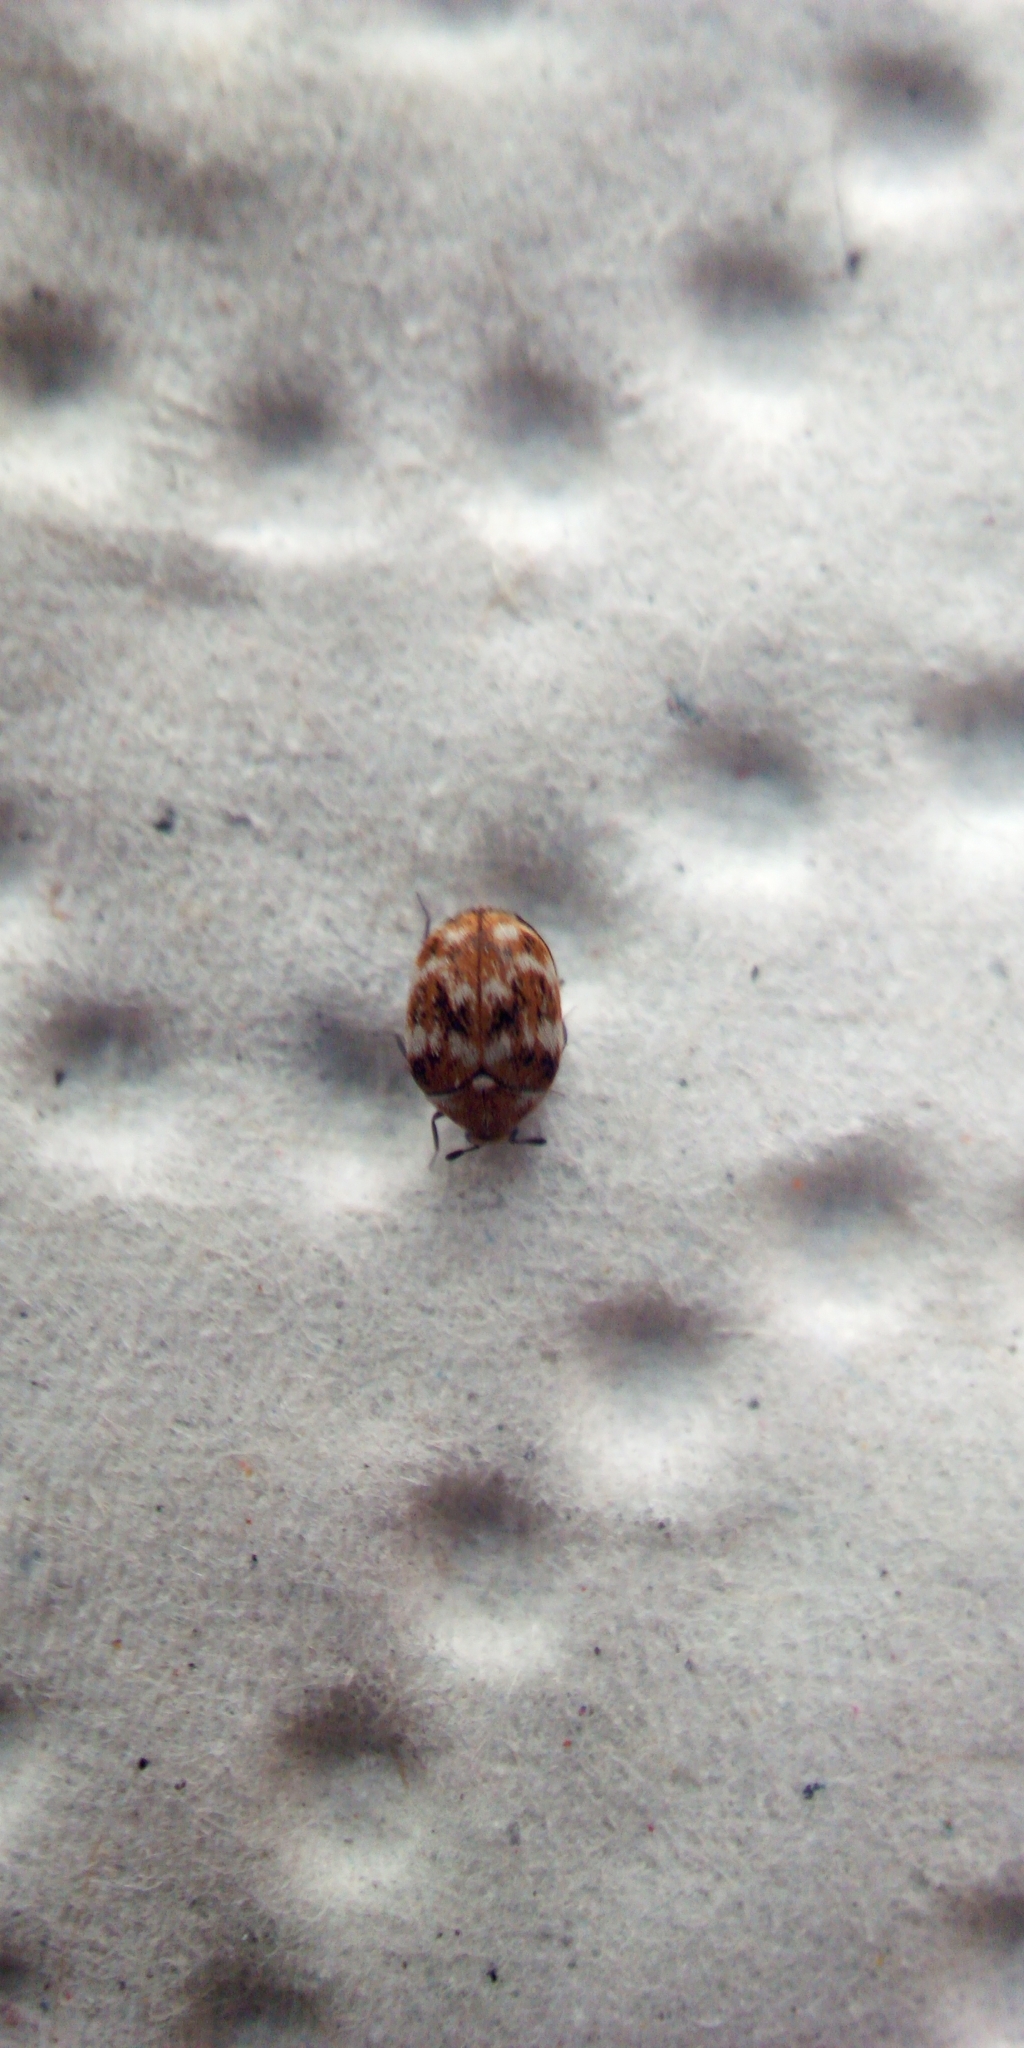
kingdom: Animalia
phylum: Arthropoda
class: Insecta
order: Coleoptera
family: Dermestidae
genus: Anthrenus
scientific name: Anthrenus verbasci
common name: Varied carpet beetle
